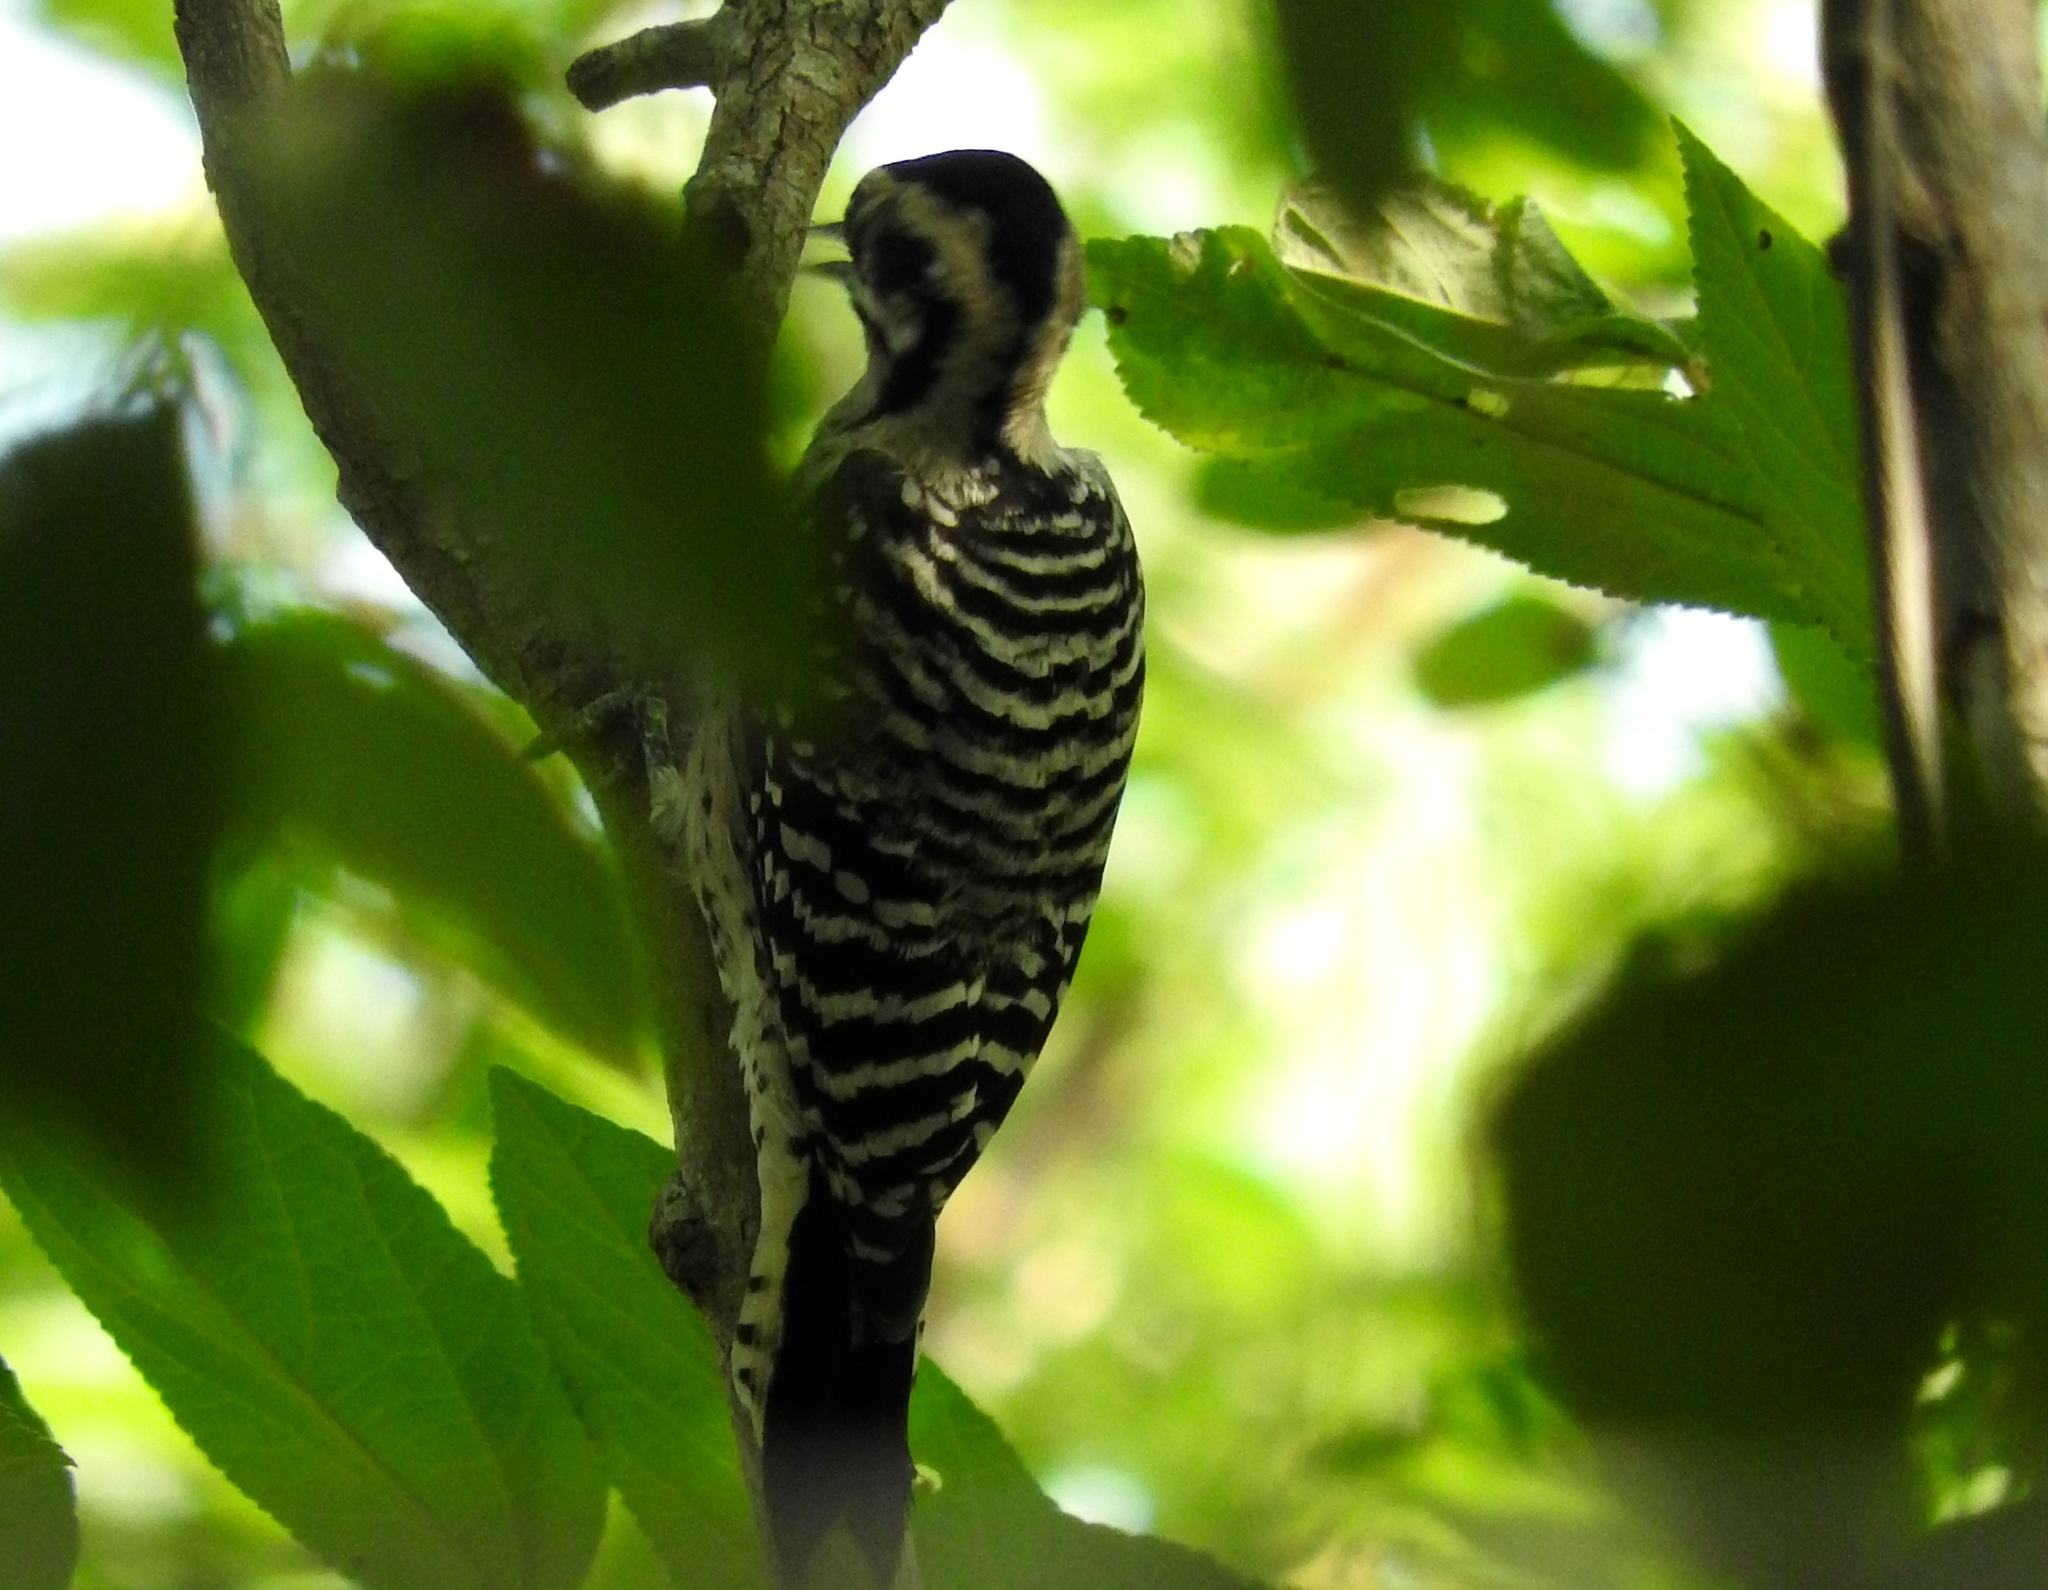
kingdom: Animalia
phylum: Chordata
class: Aves
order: Piciformes
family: Picidae
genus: Dryobates
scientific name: Dryobates scalaris
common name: Ladder-backed woodpecker
